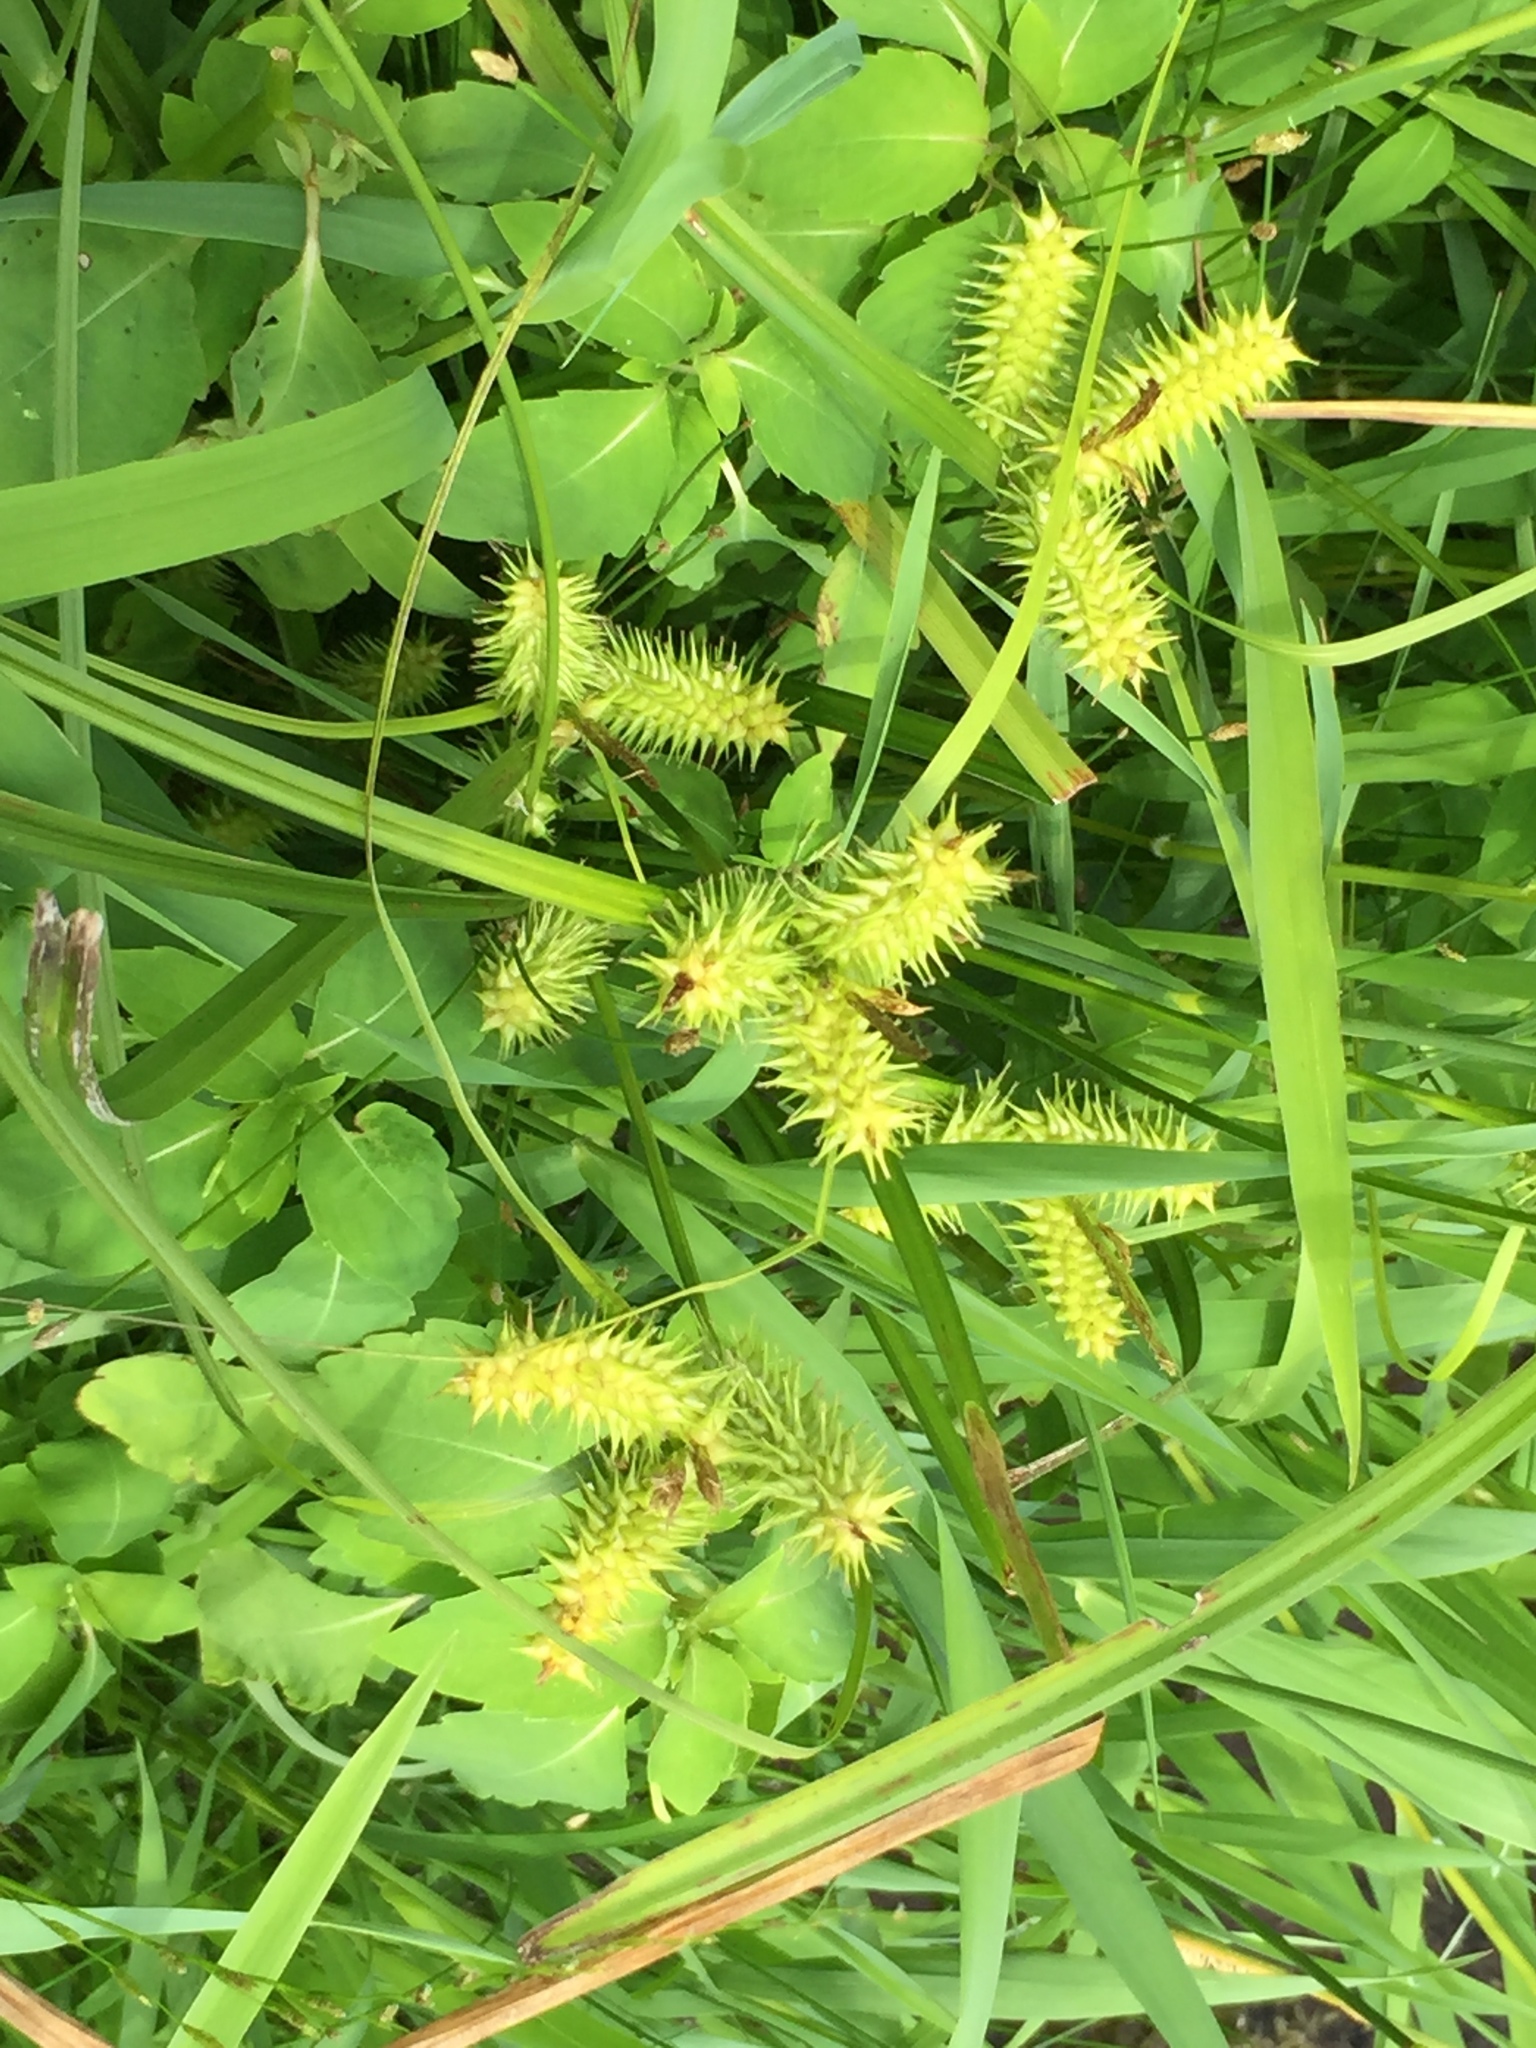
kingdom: Plantae
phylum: Tracheophyta
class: Liliopsida
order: Poales
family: Cyperaceae
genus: Carex
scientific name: Carex retrorsa
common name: Knot-sheath sedge
